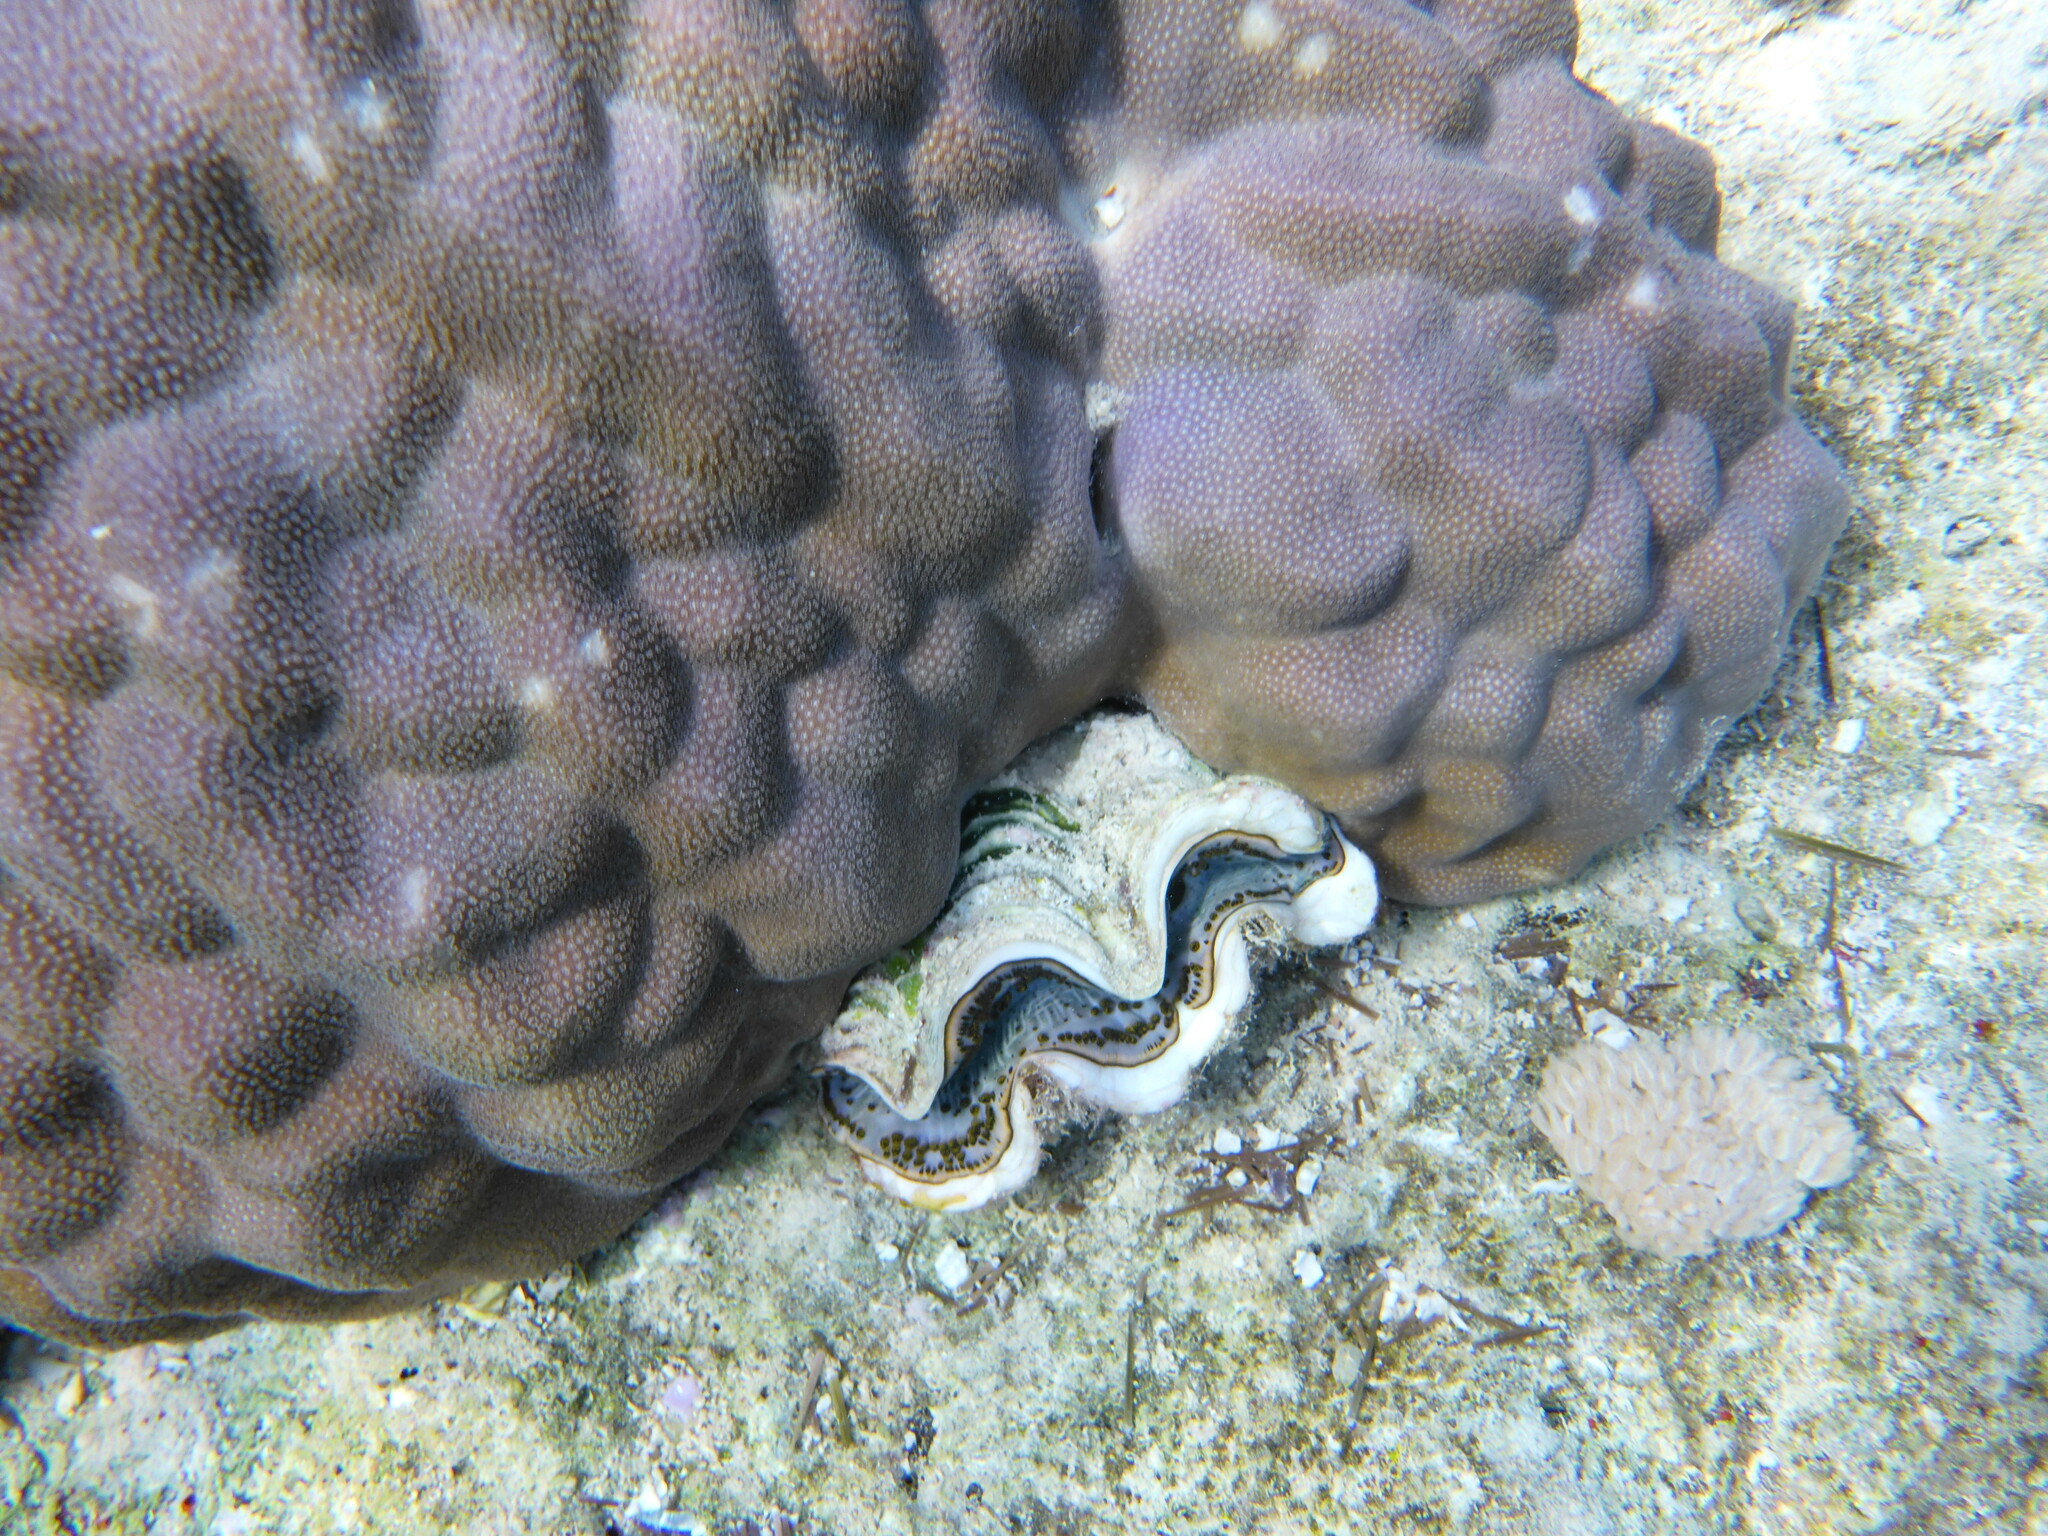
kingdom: Animalia
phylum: Mollusca
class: Bivalvia
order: Cardiida
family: Cardiidae
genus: Tridacna
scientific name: Tridacna maxima
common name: Small giant clam
